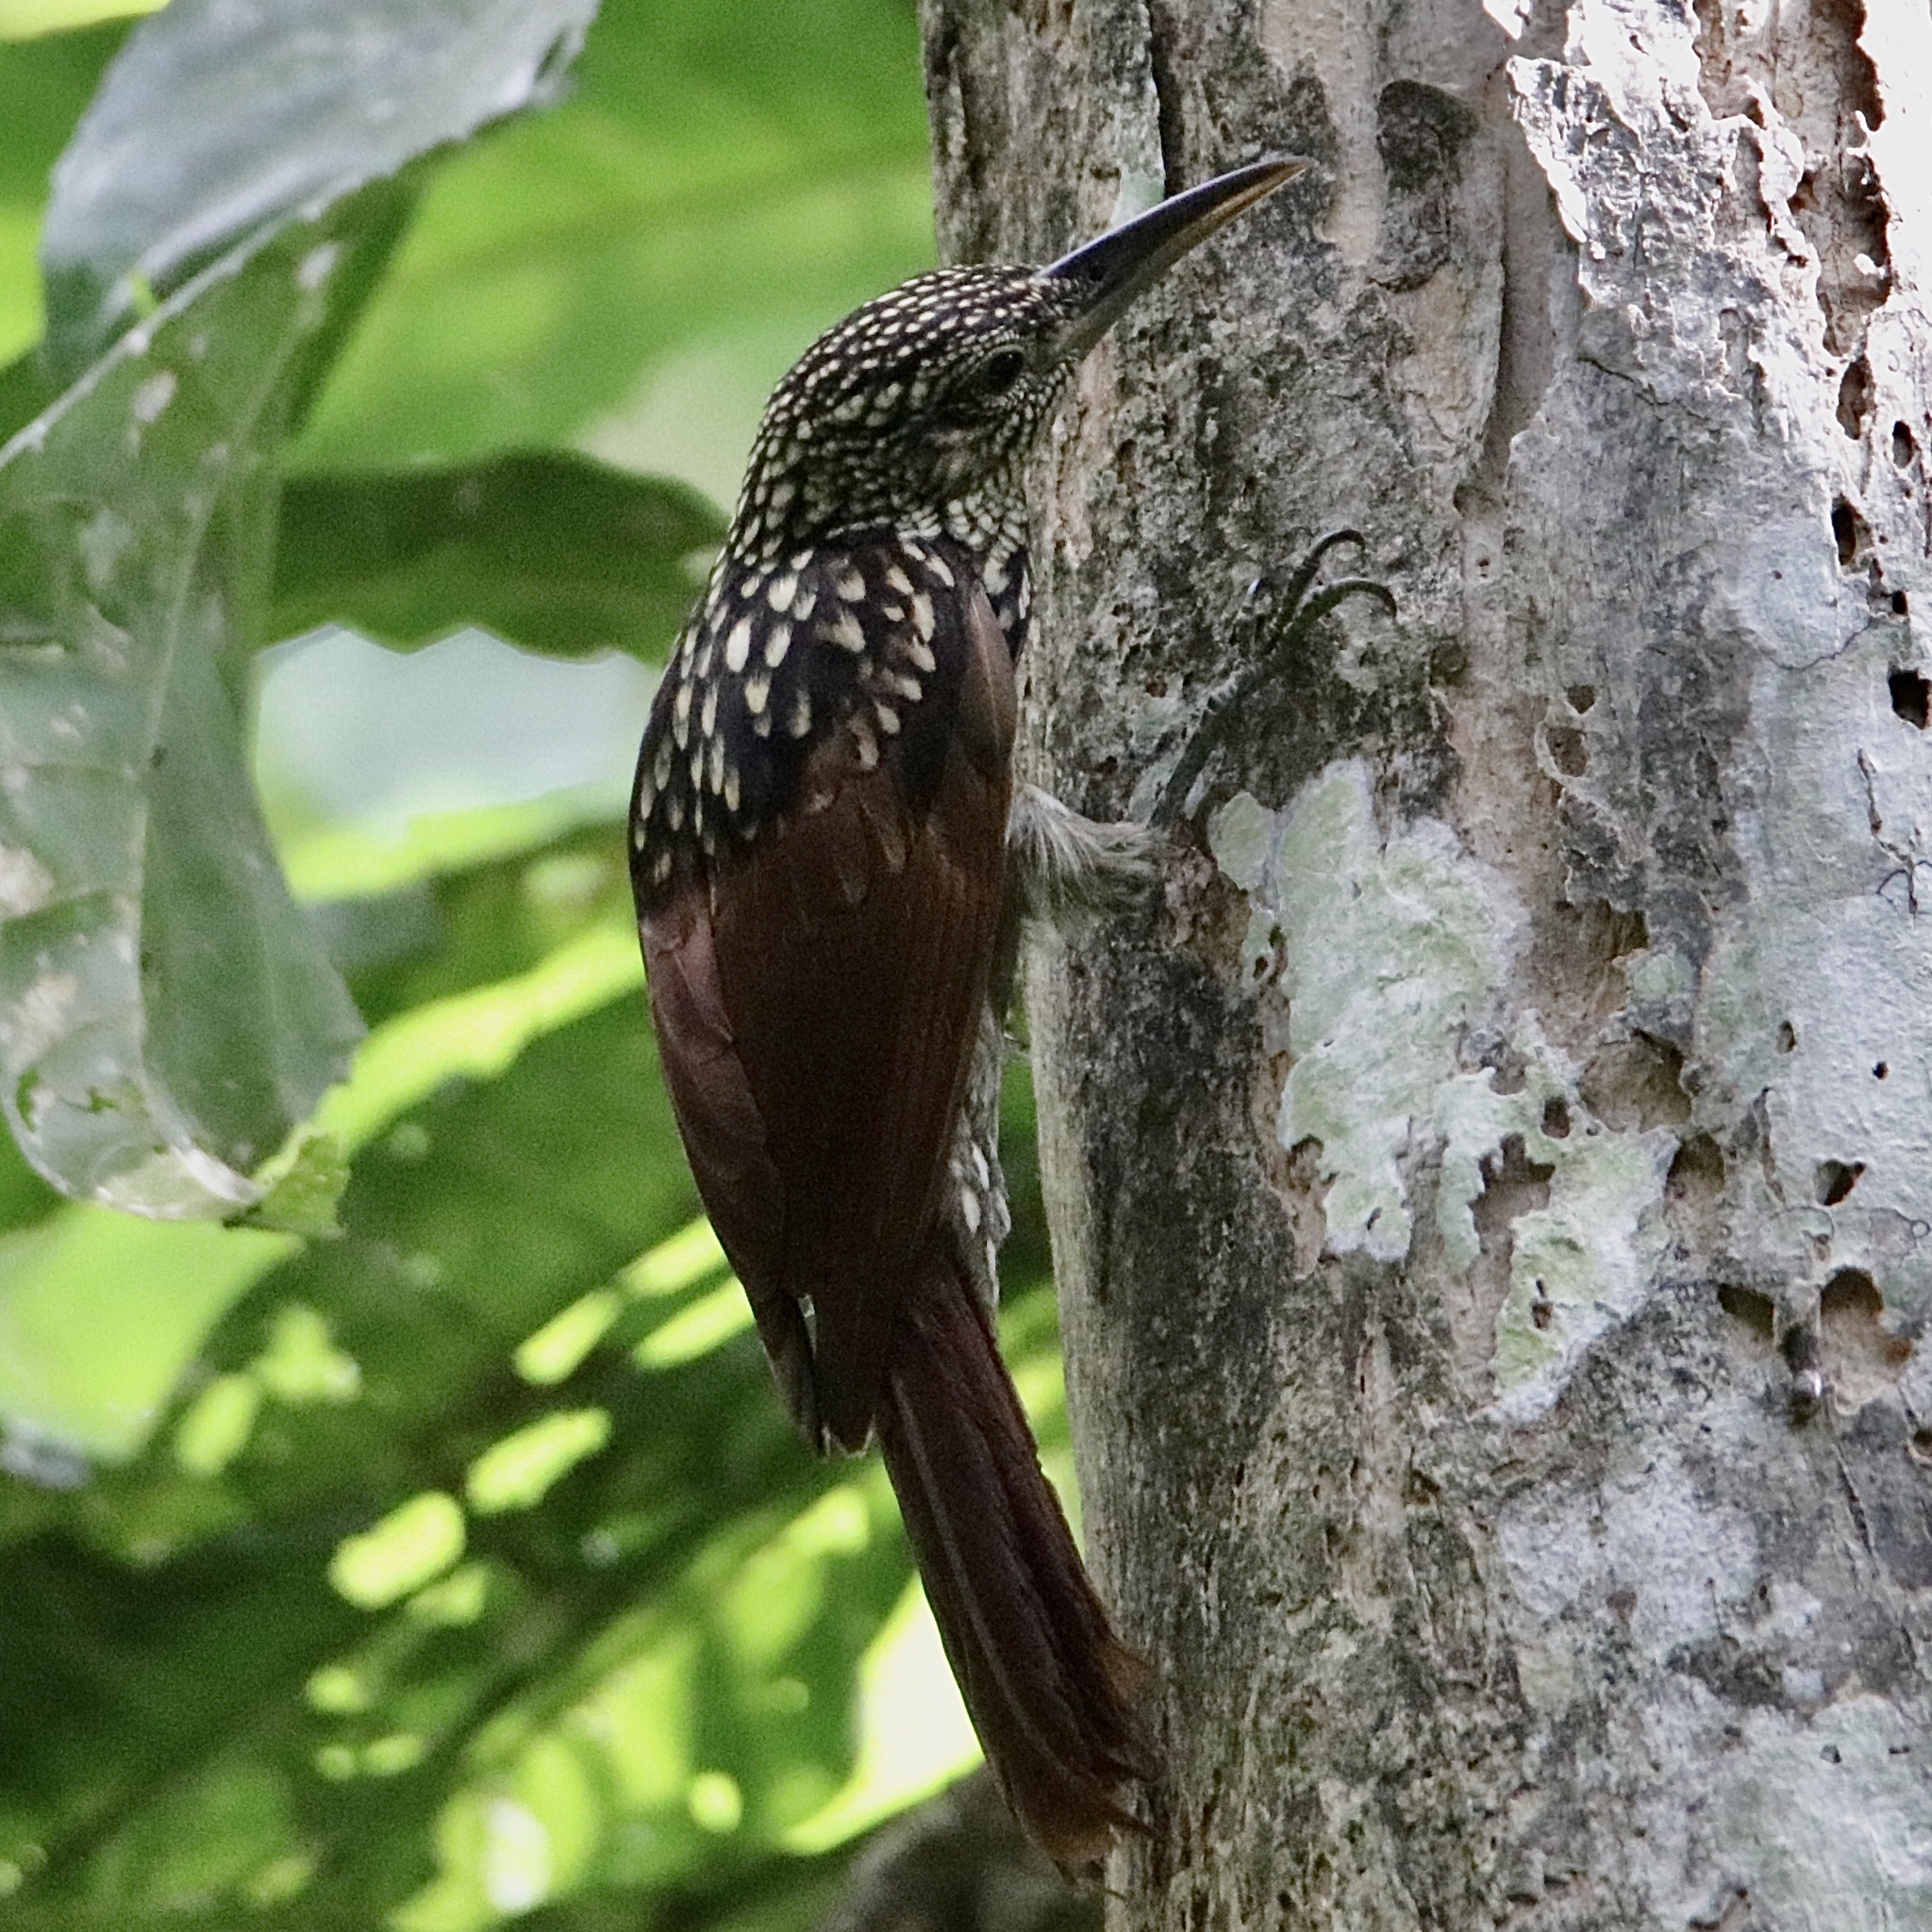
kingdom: Animalia
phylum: Chordata
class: Aves
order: Passeriformes
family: Furnariidae
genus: Xiphorhynchus
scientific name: Xiphorhynchus lachrymosus
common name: Black-striped woodcreeper
